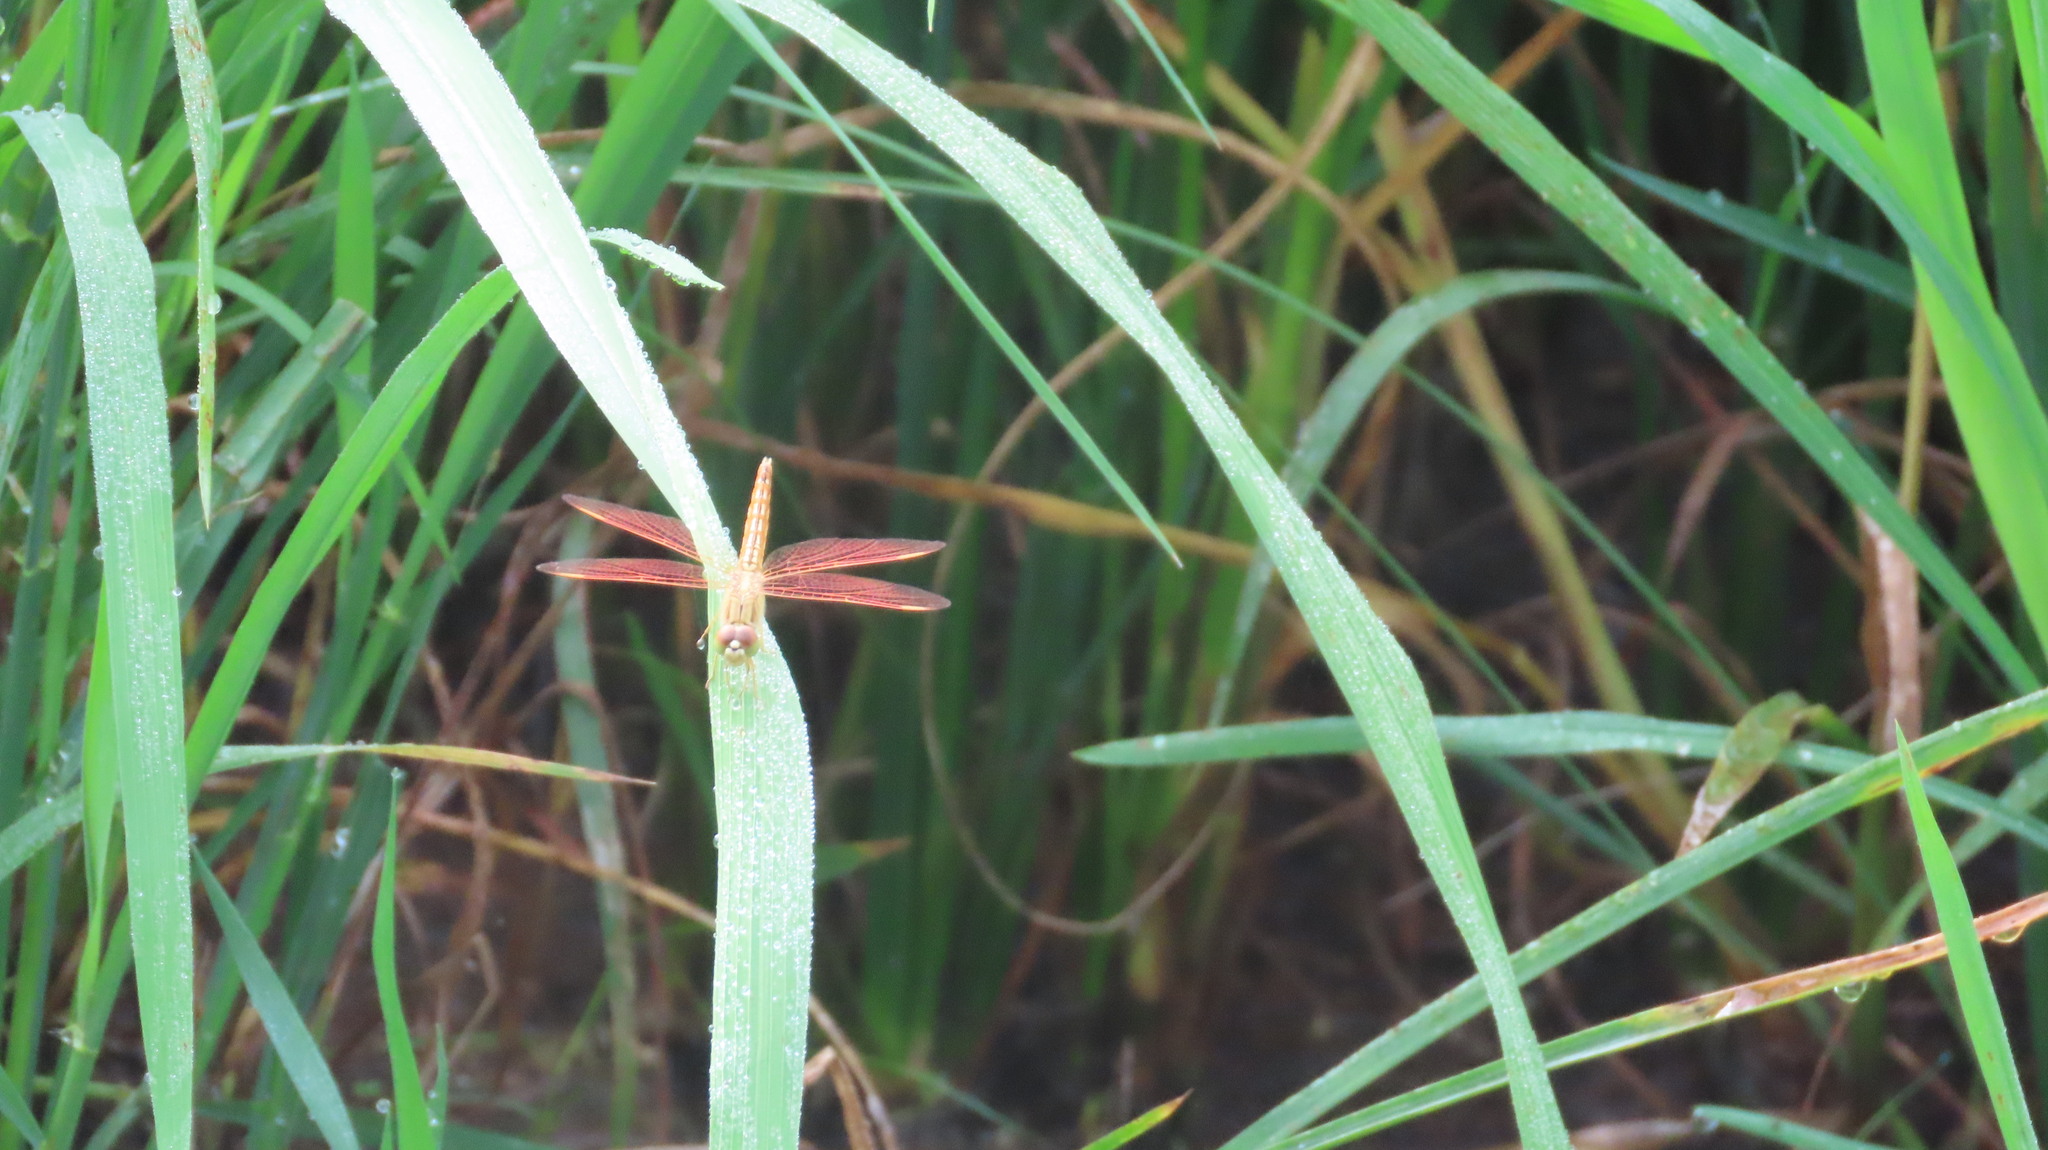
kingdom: Animalia
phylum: Arthropoda
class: Insecta
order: Odonata
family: Libellulidae
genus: Brachythemis
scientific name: Brachythemis contaminata
